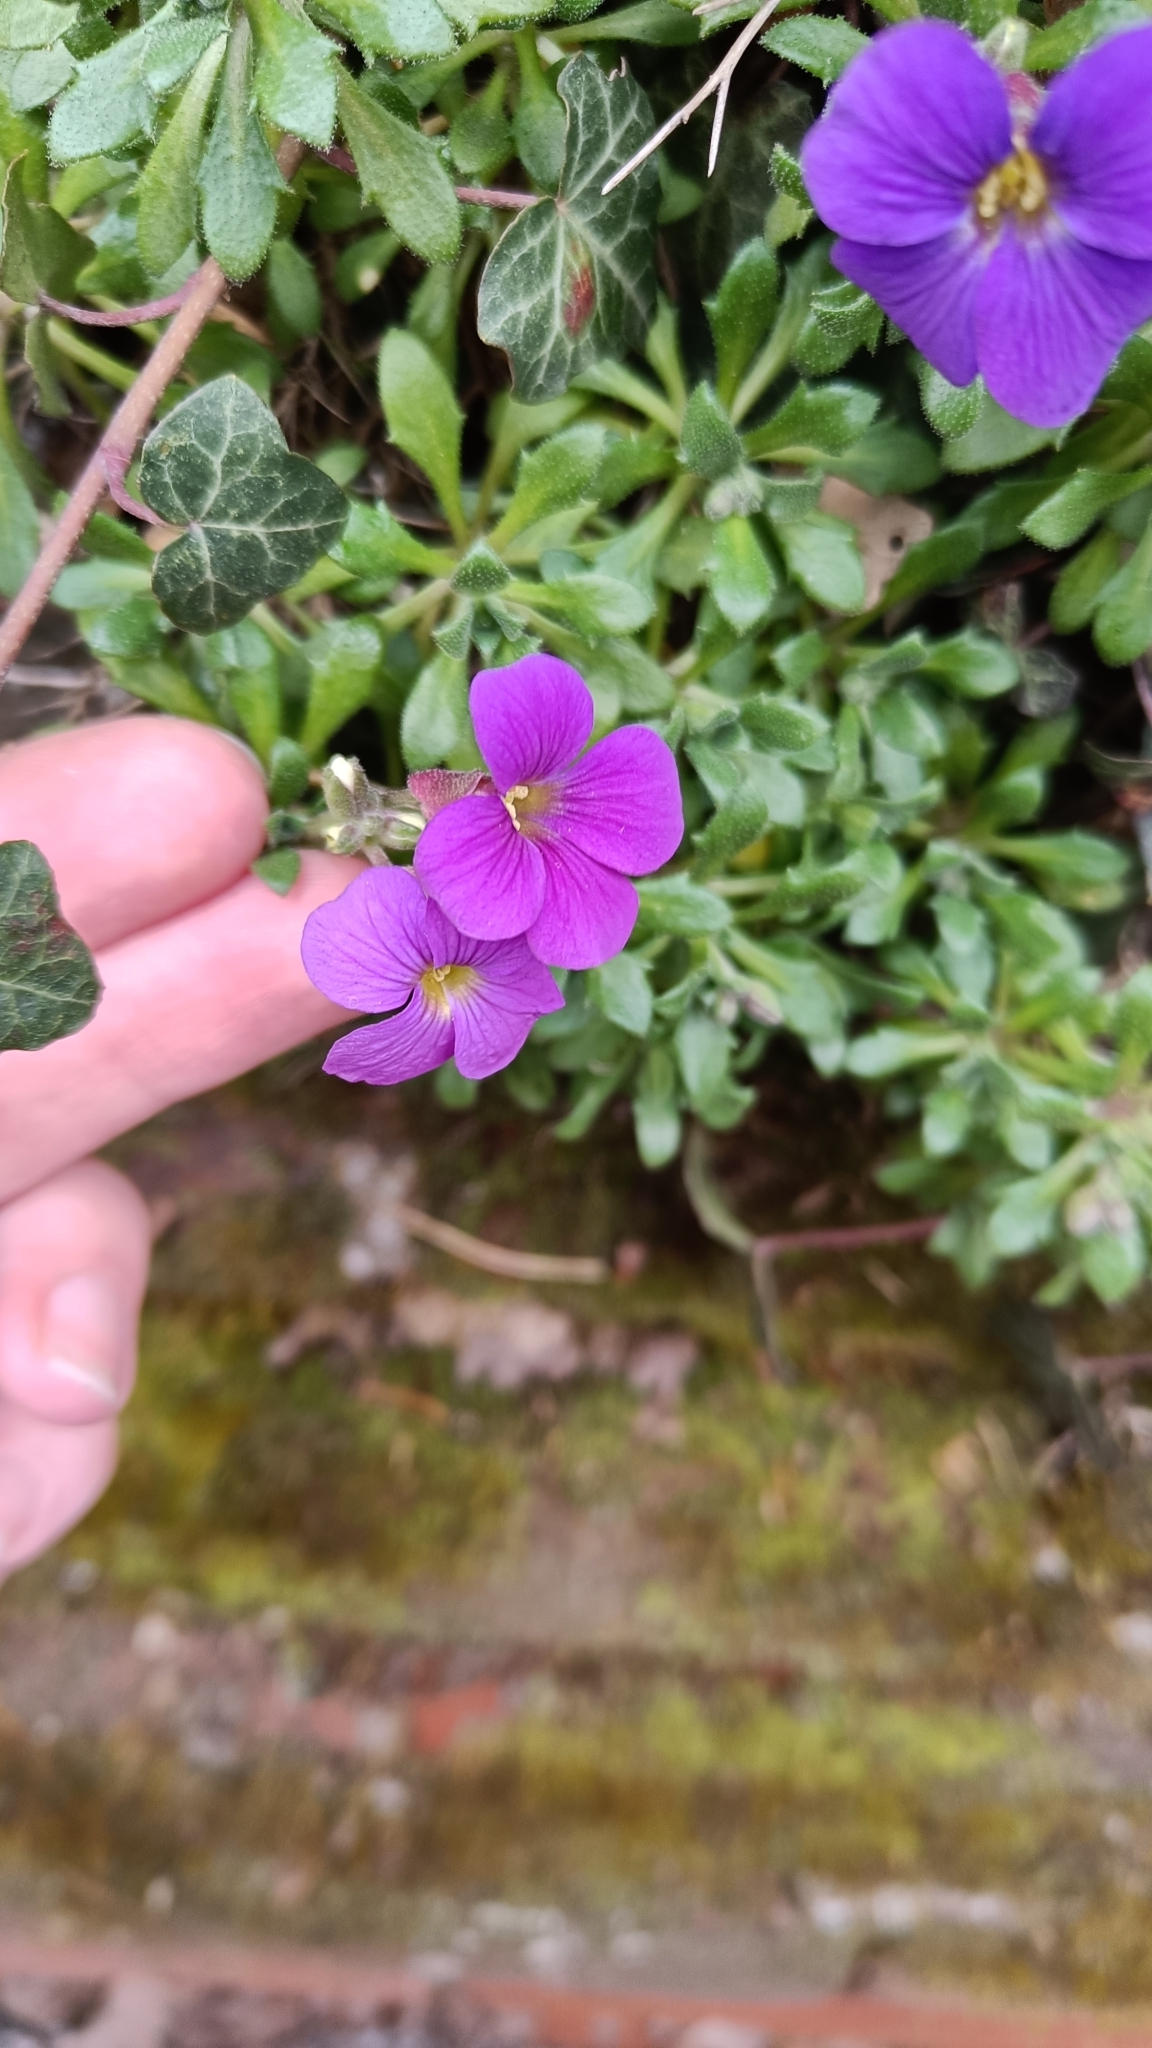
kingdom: Plantae
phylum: Tracheophyta
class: Magnoliopsida
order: Brassicales
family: Brassicaceae
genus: Aubrieta
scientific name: Aubrieta deltoidea
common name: Aubretia
